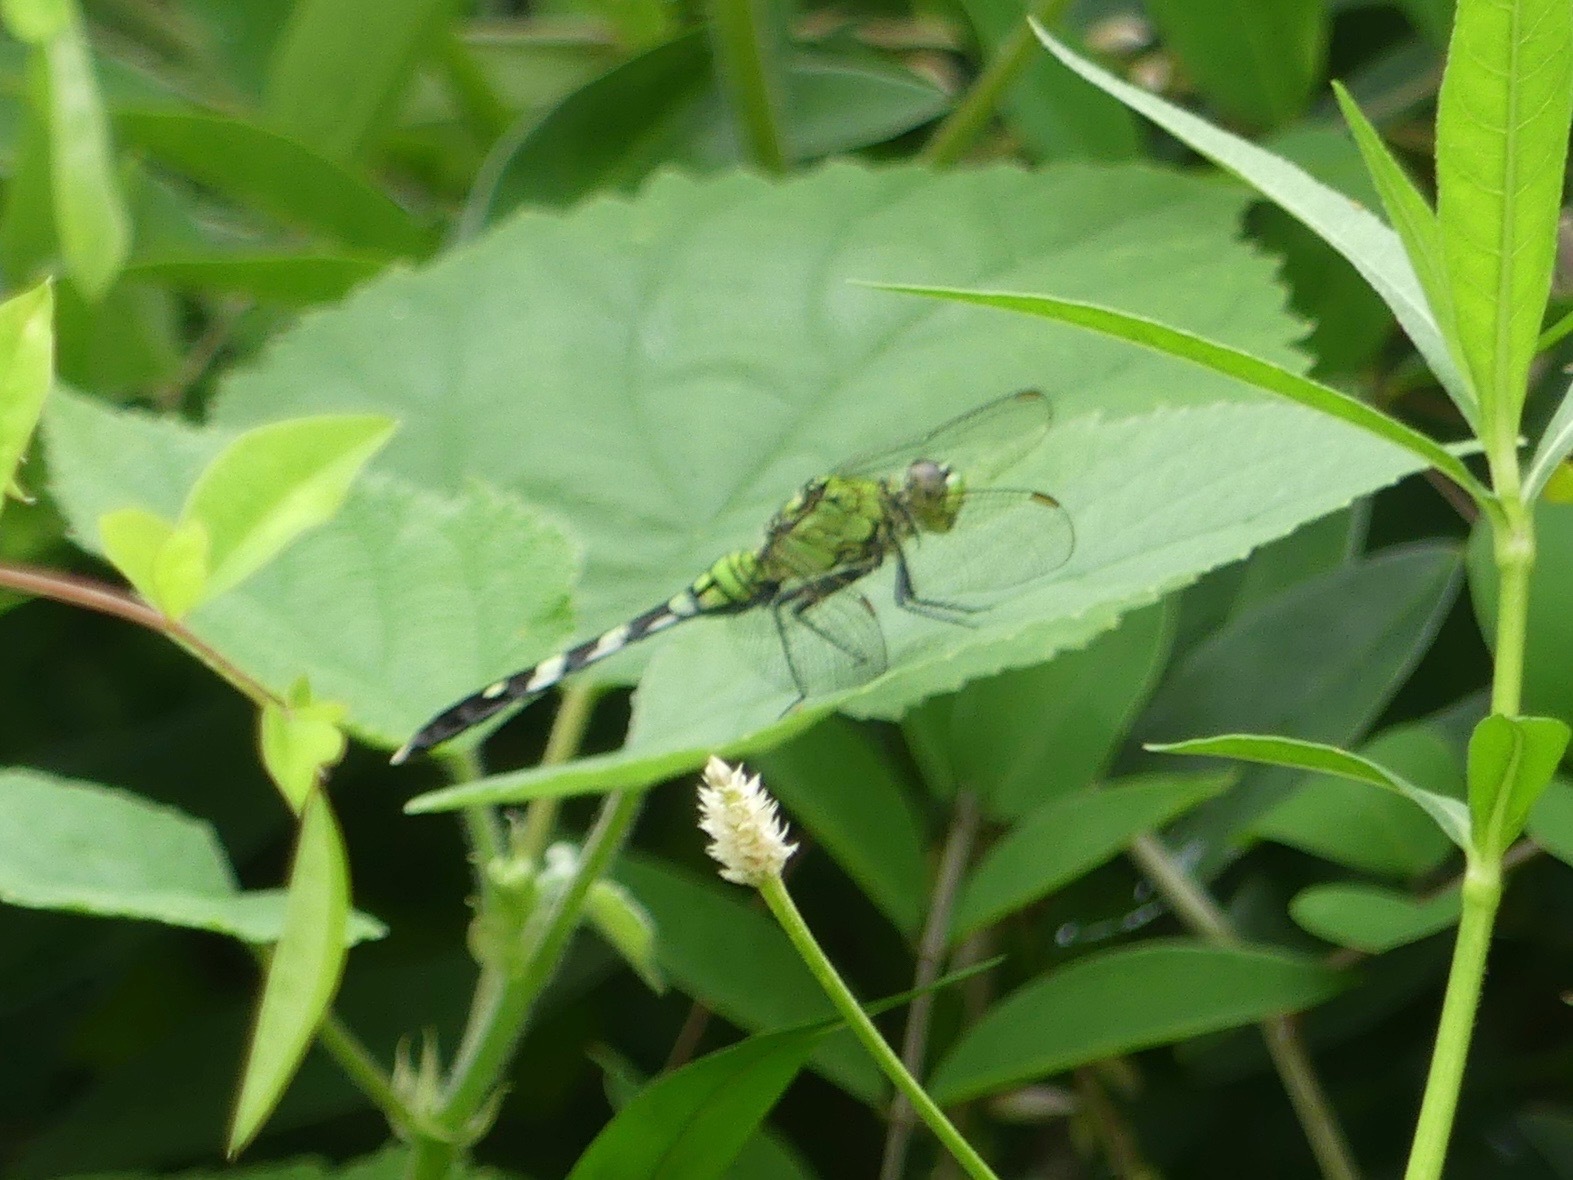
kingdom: Animalia
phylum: Arthropoda
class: Insecta
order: Odonata
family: Libellulidae
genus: Erythemis
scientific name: Erythemis simplicicollis
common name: Eastern pondhawk
